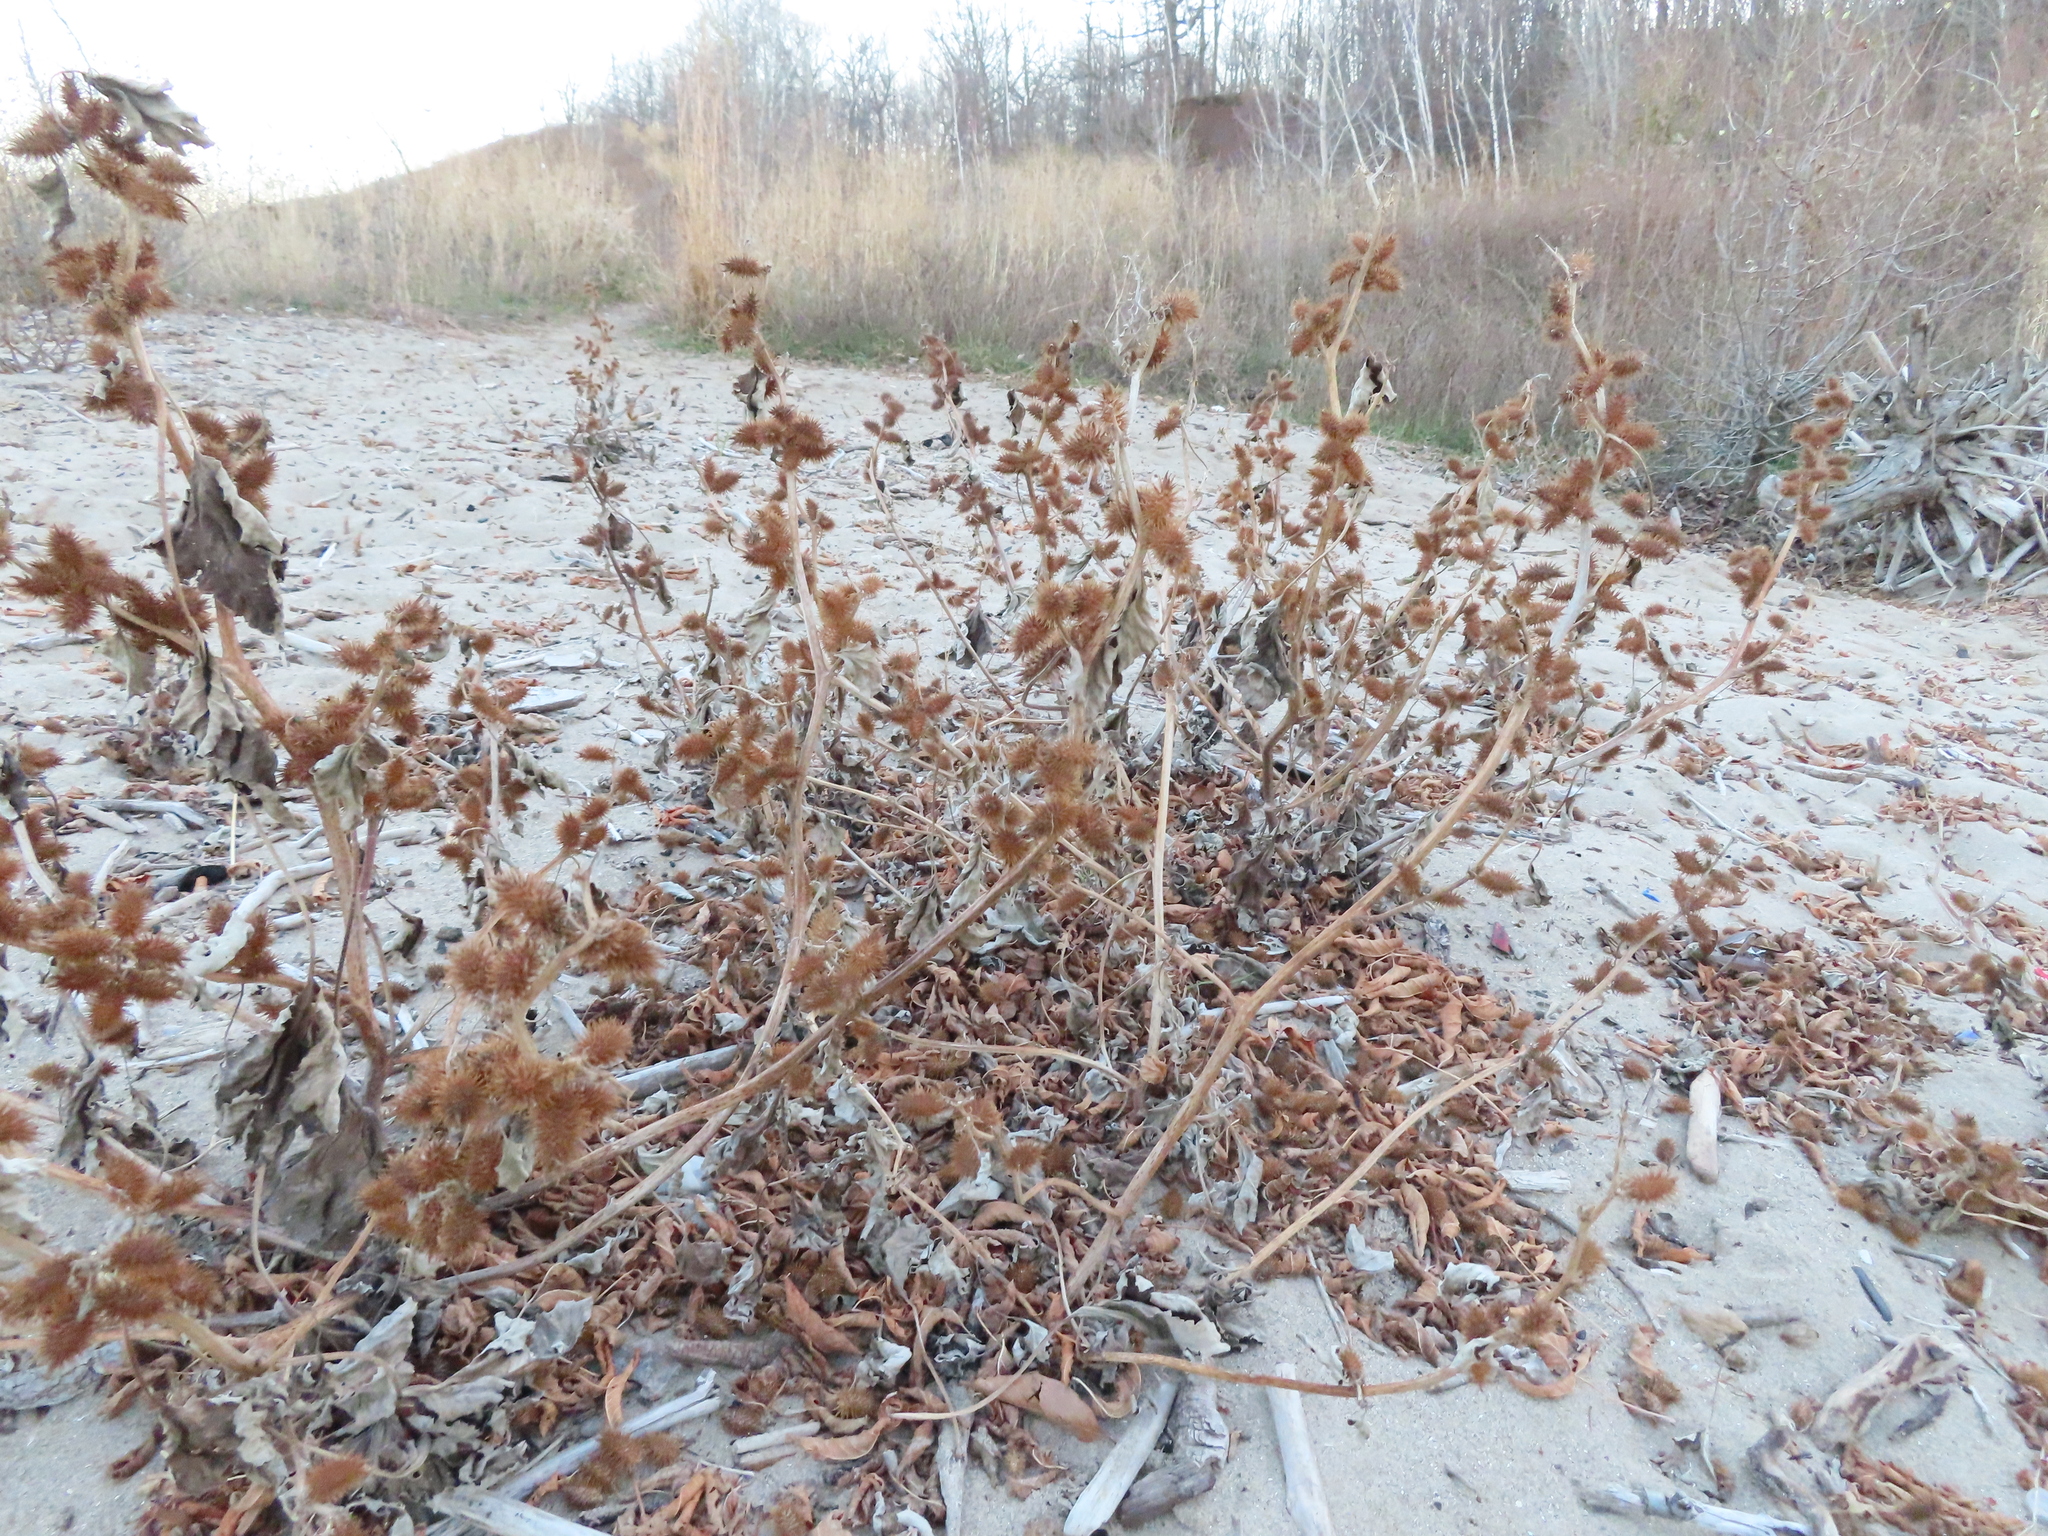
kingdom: Plantae
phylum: Tracheophyta
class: Magnoliopsida
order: Asterales
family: Asteraceae
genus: Xanthium
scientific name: Xanthium strumarium
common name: Rough cocklebur
